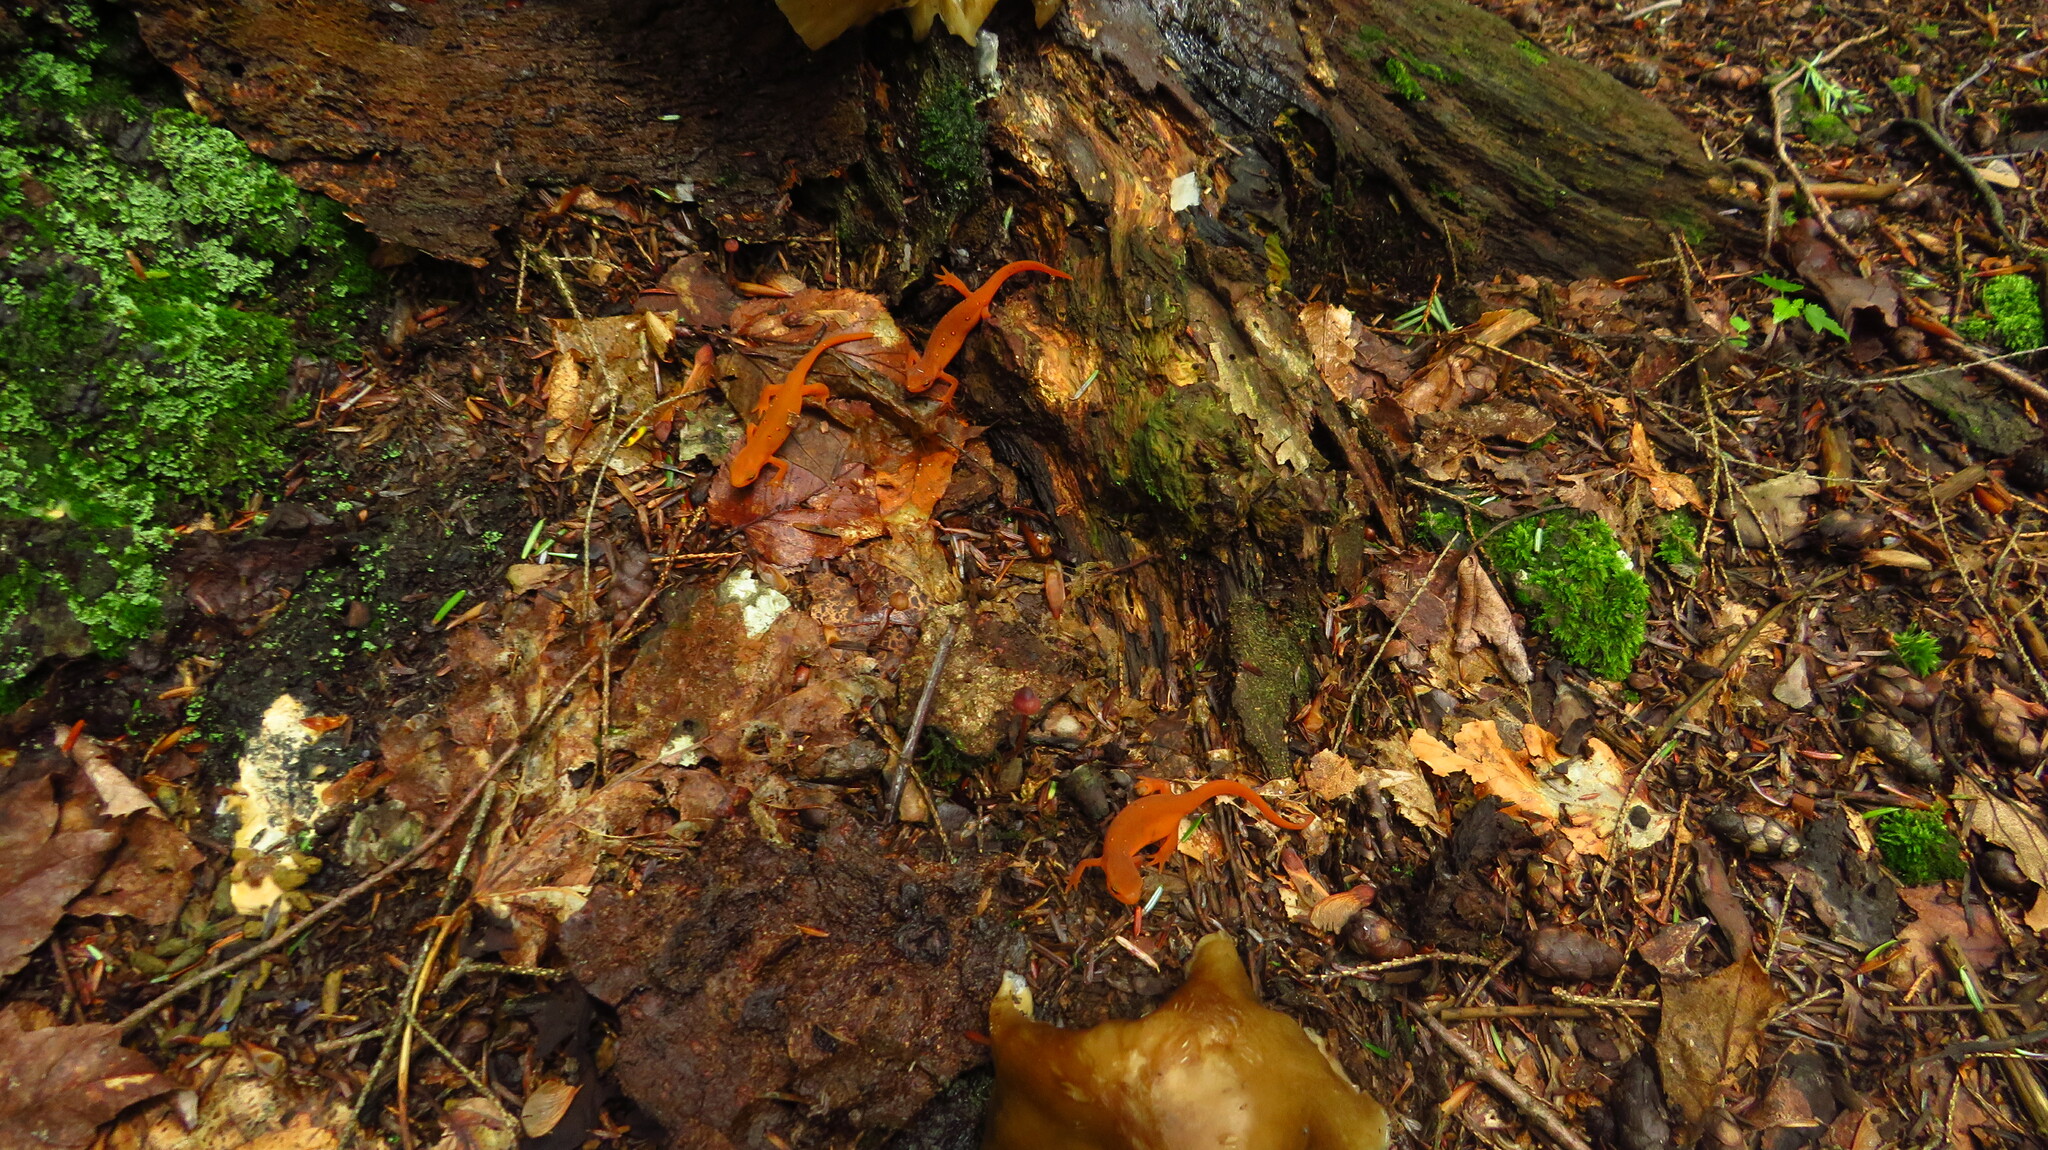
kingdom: Animalia
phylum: Chordata
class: Amphibia
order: Caudata
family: Salamandridae
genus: Notophthalmus
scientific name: Notophthalmus viridescens
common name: Eastern newt
